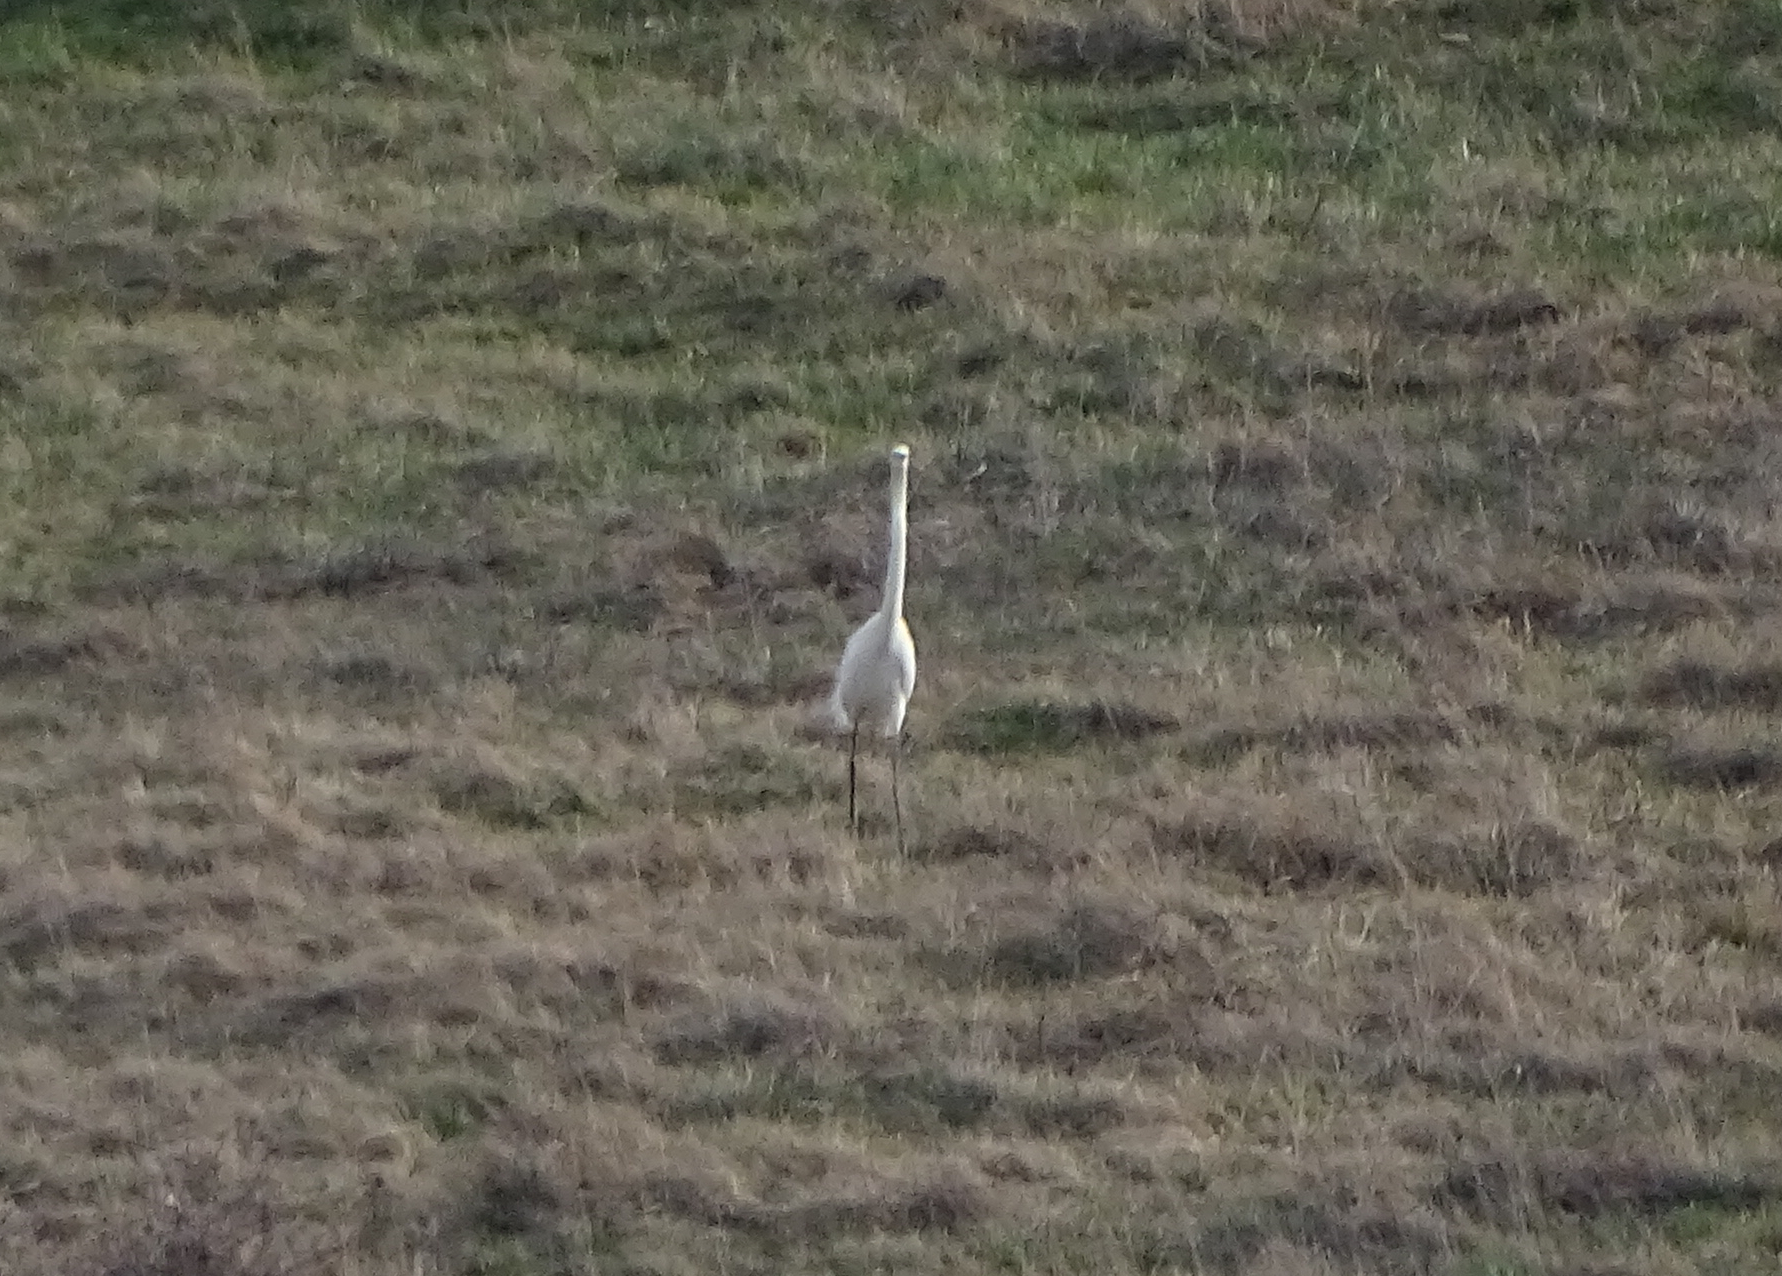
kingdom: Animalia
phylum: Chordata
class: Aves
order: Pelecaniformes
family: Ardeidae
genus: Ardea
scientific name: Ardea alba
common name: Great egret
